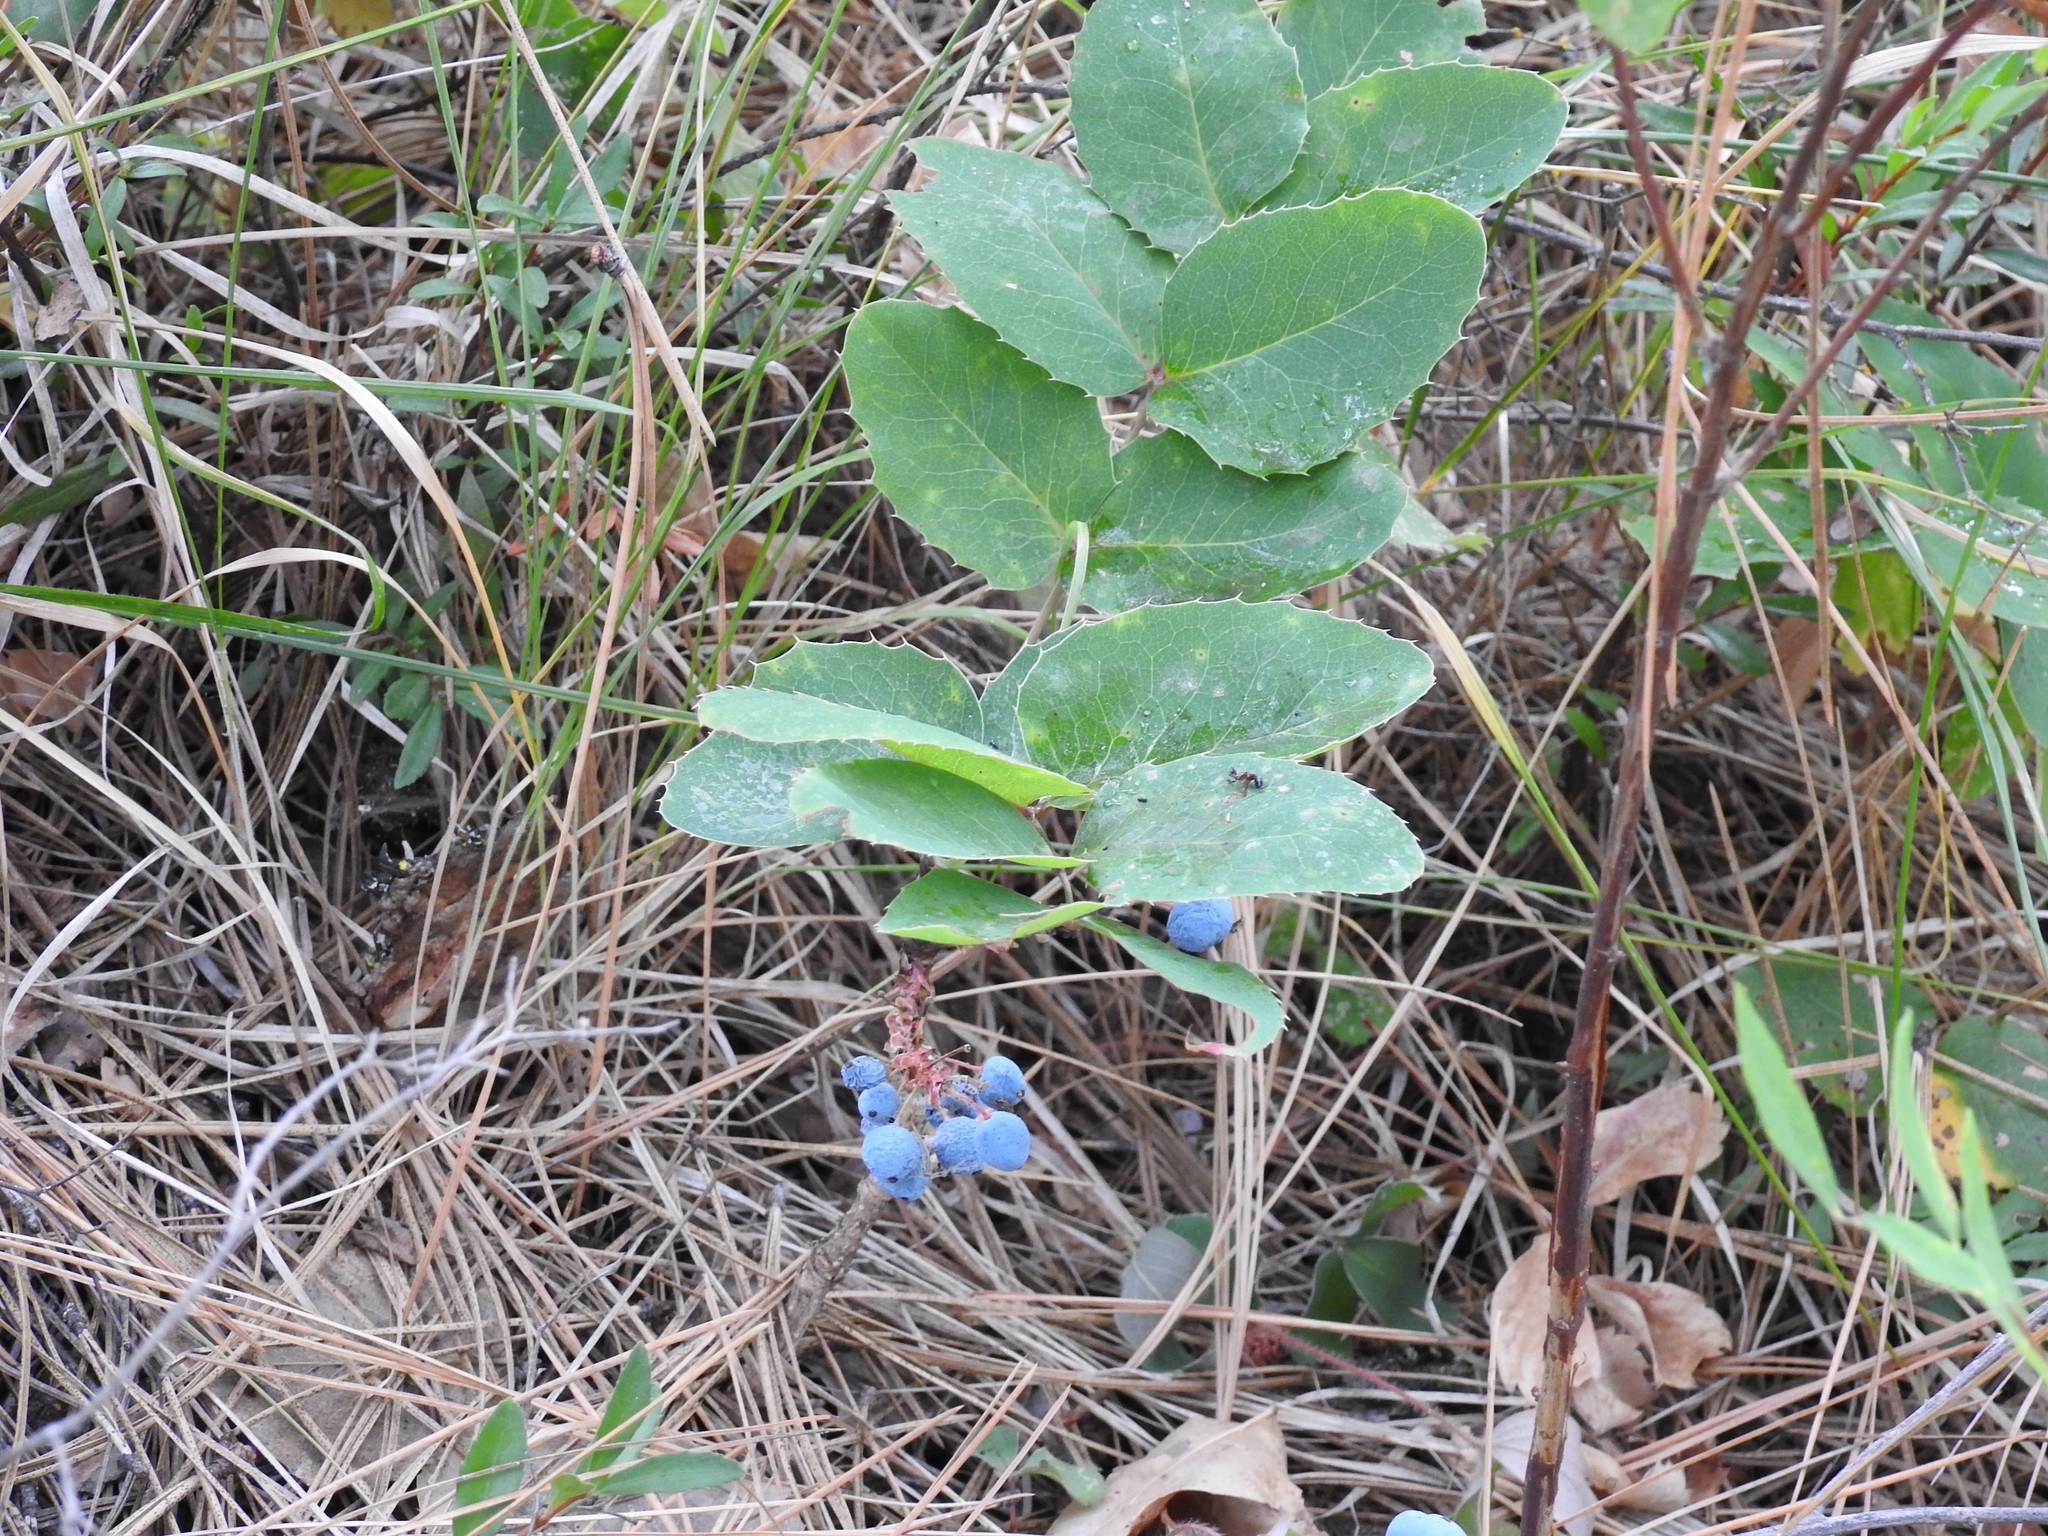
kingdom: Plantae
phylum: Tracheophyta
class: Magnoliopsida
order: Ranunculales
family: Berberidaceae
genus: Mahonia
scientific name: Mahonia repens
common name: Creeping oregon-grape
